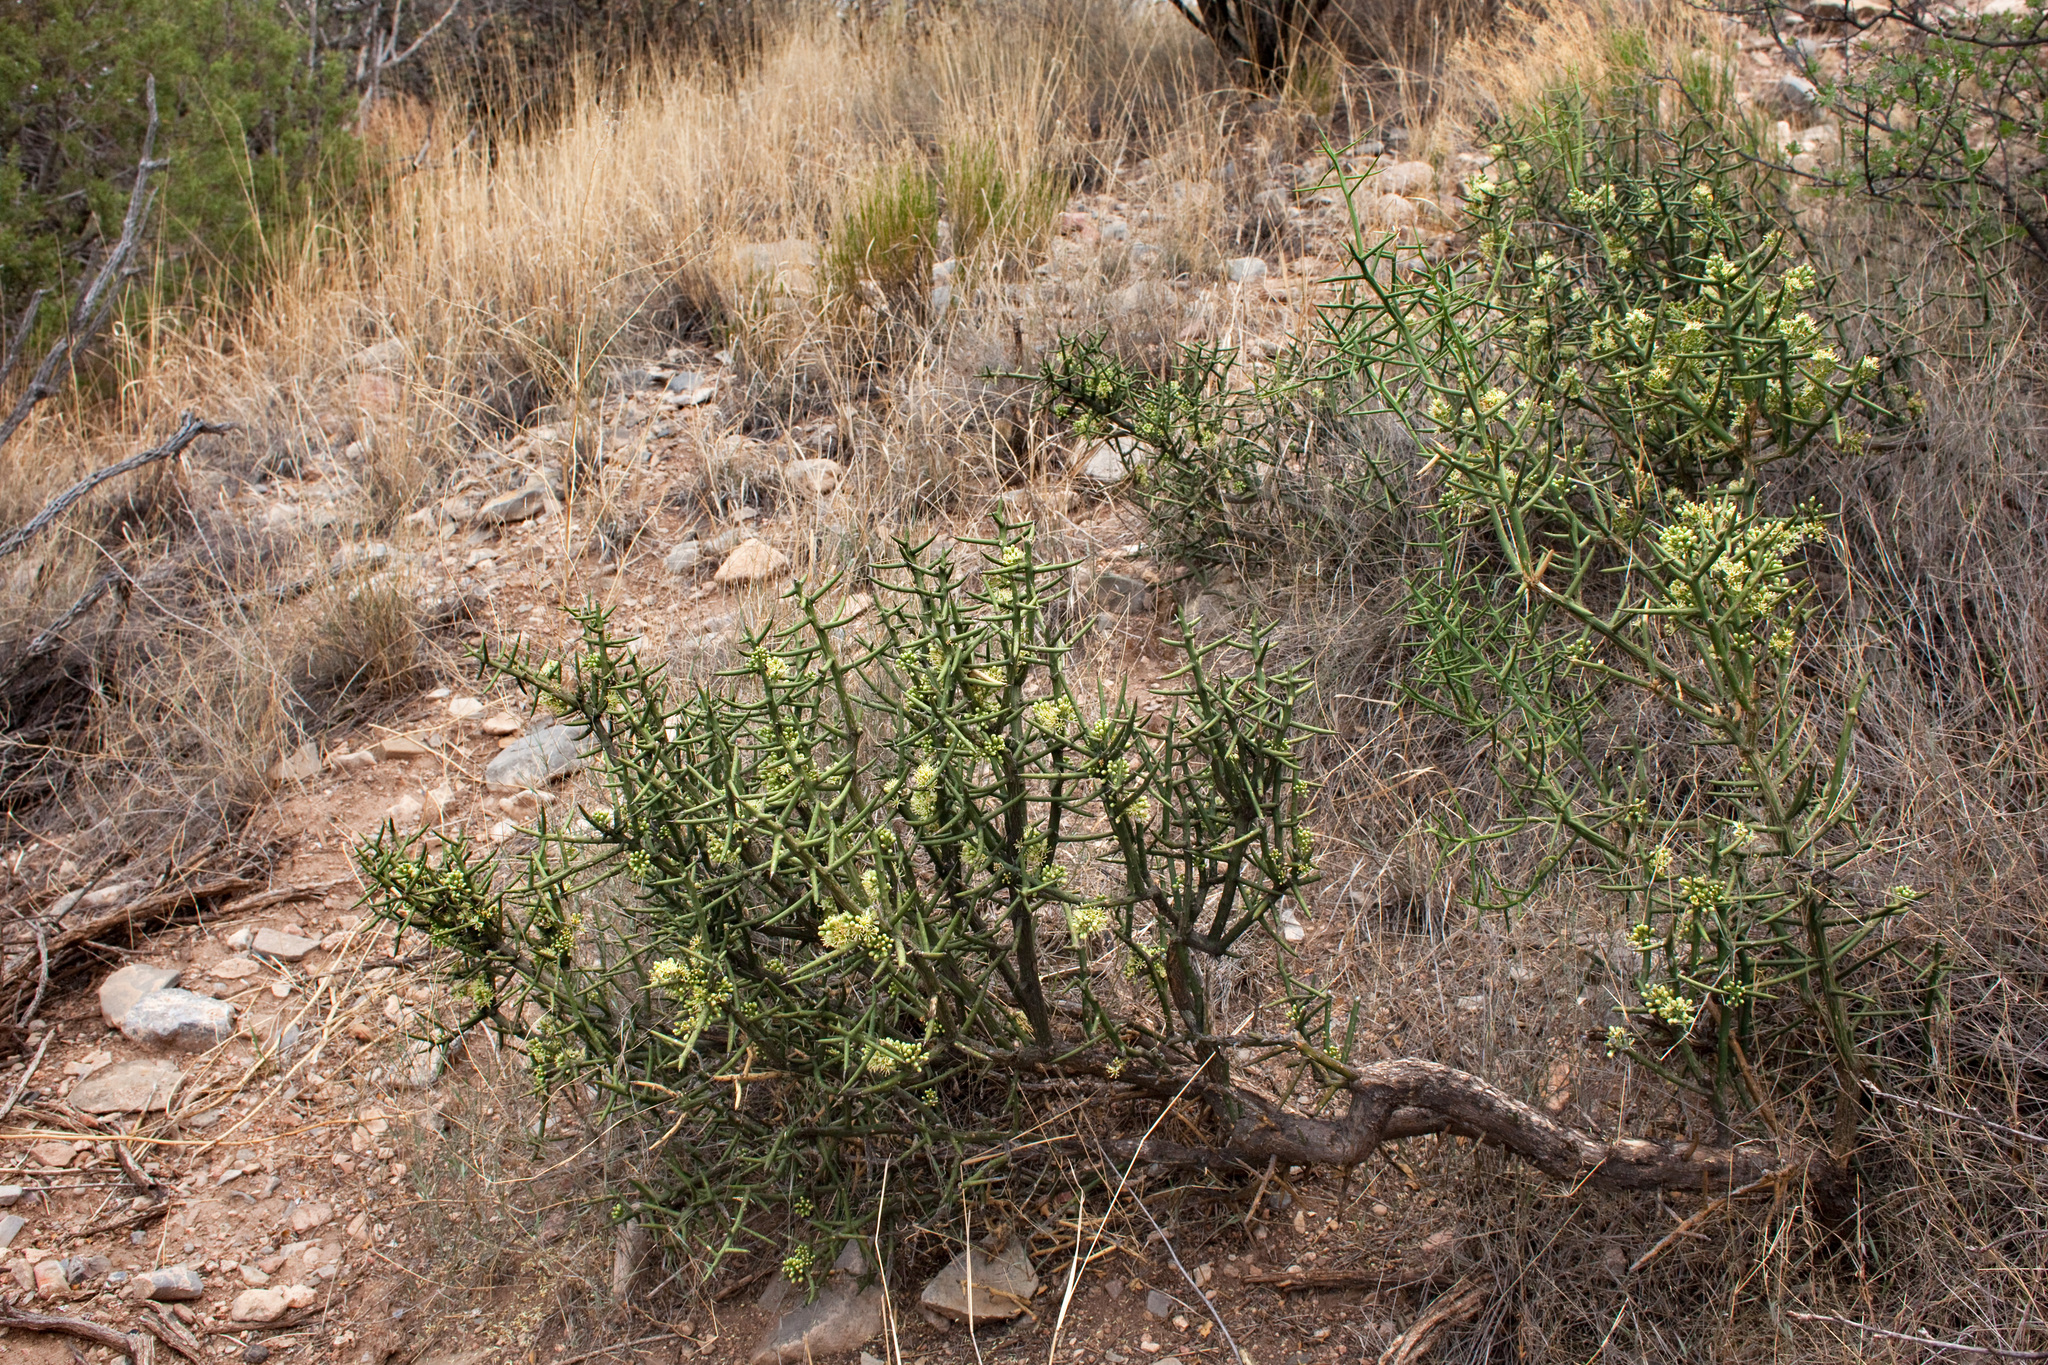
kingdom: Plantae
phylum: Tracheophyta
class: Magnoliopsida
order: Brassicales
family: Koeberliniaceae
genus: Koeberlinia
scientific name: Koeberlinia spinosa
